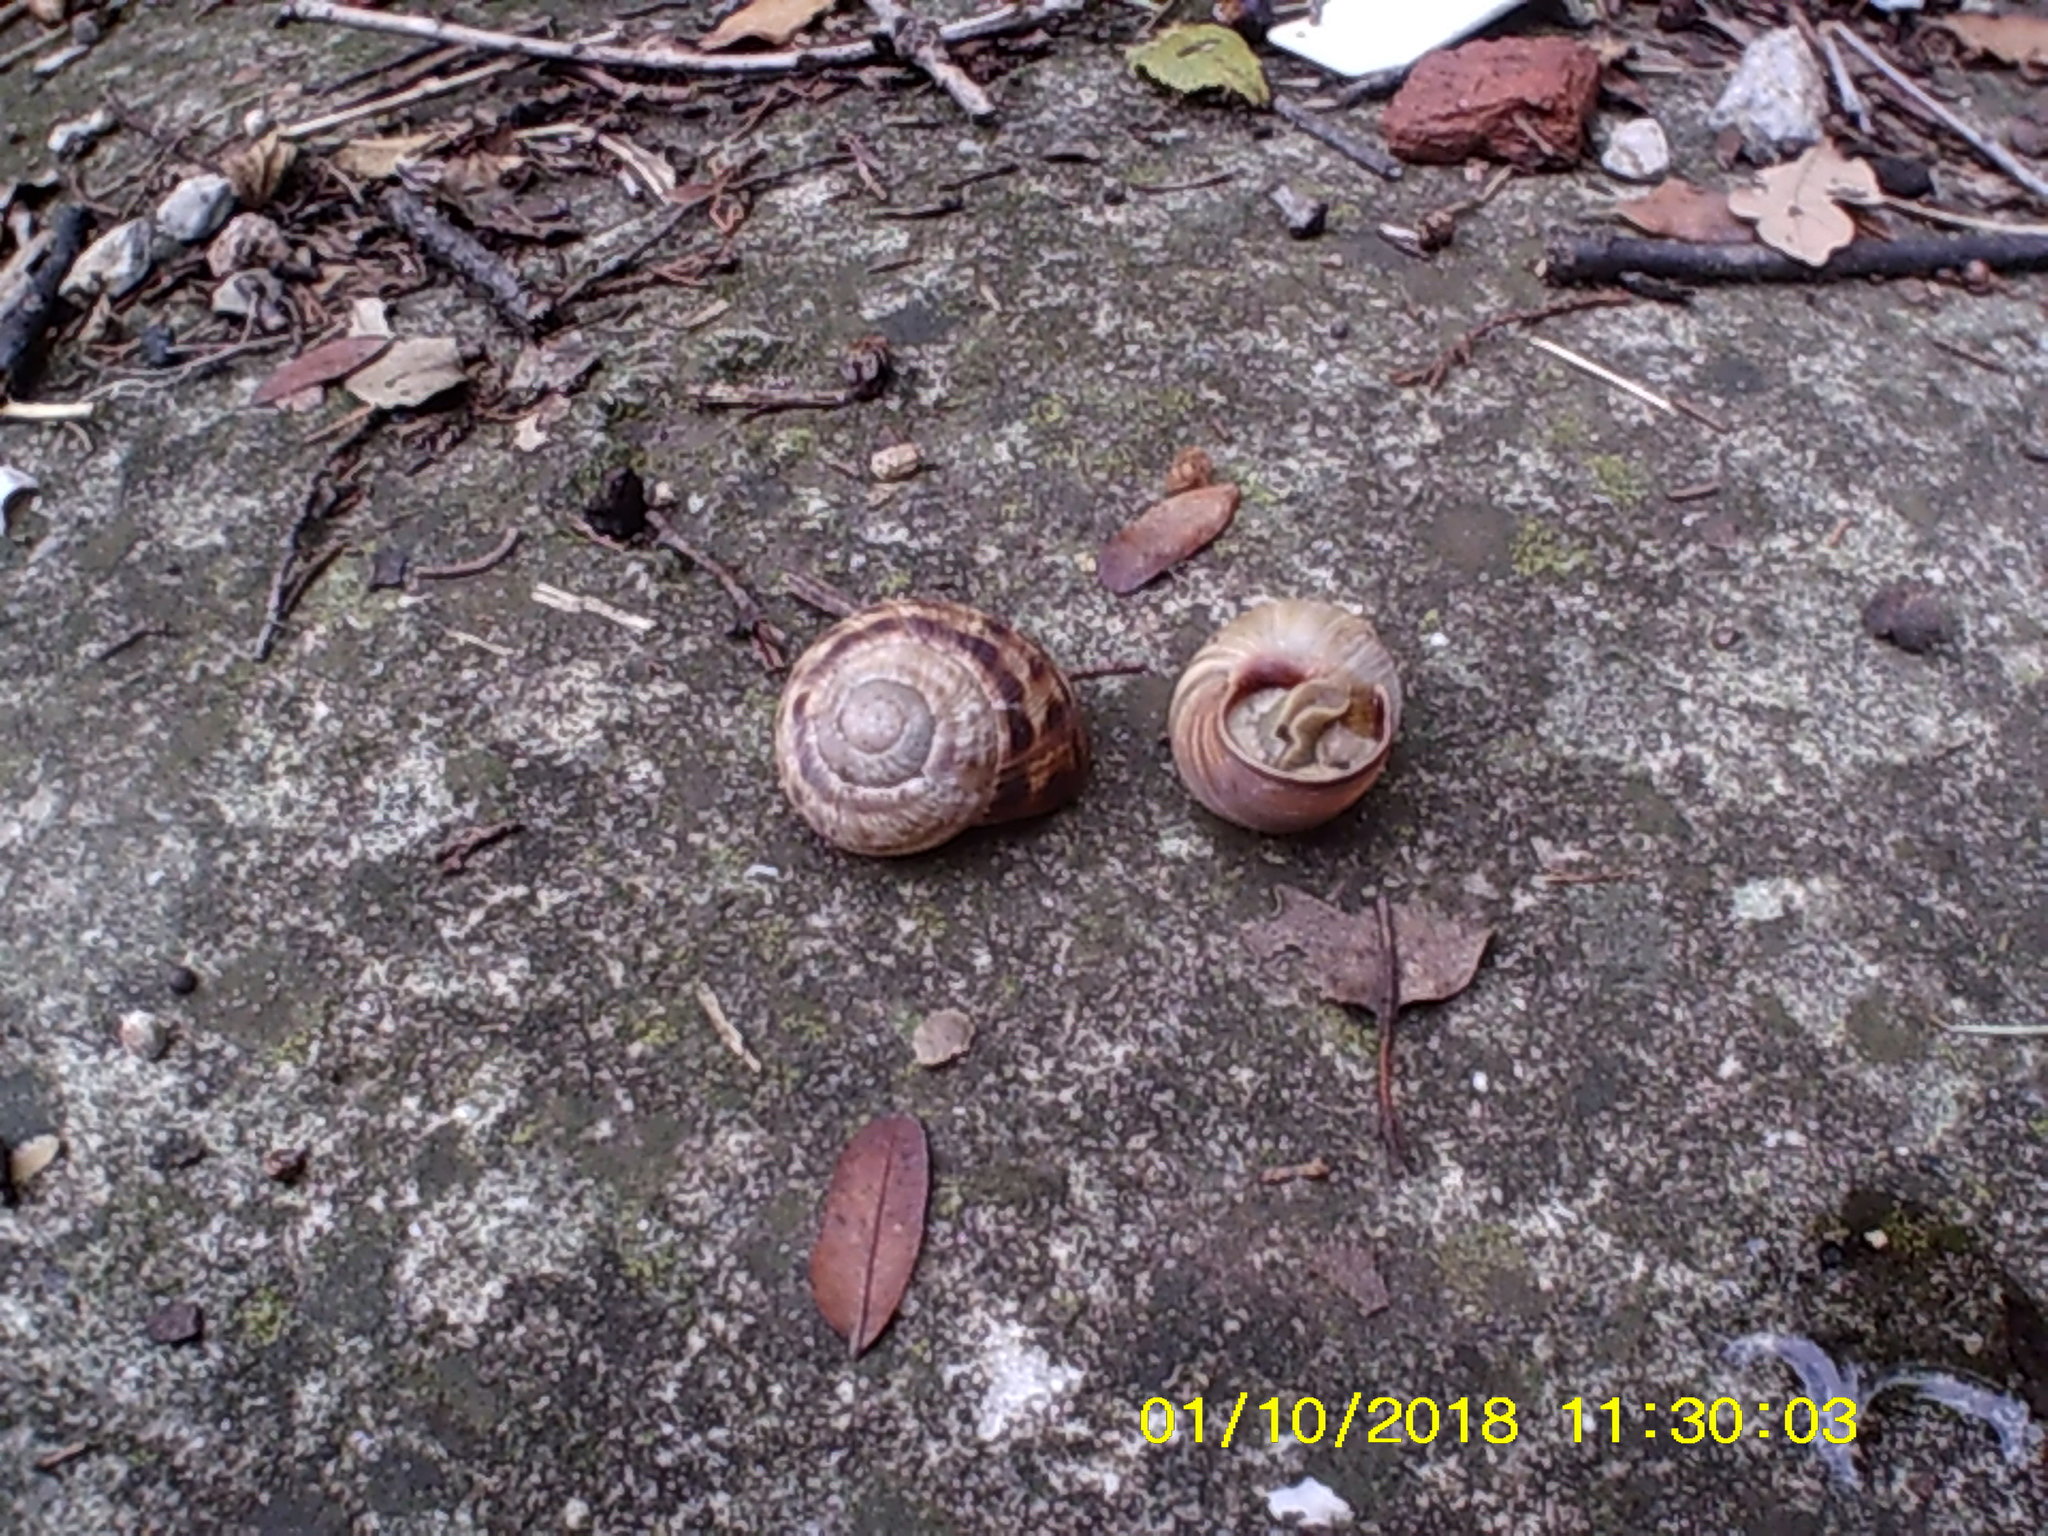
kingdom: Animalia
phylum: Mollusca
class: Gastropoda
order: Stylommatophora
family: Helicidae
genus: Helix
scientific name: Helix albescens
